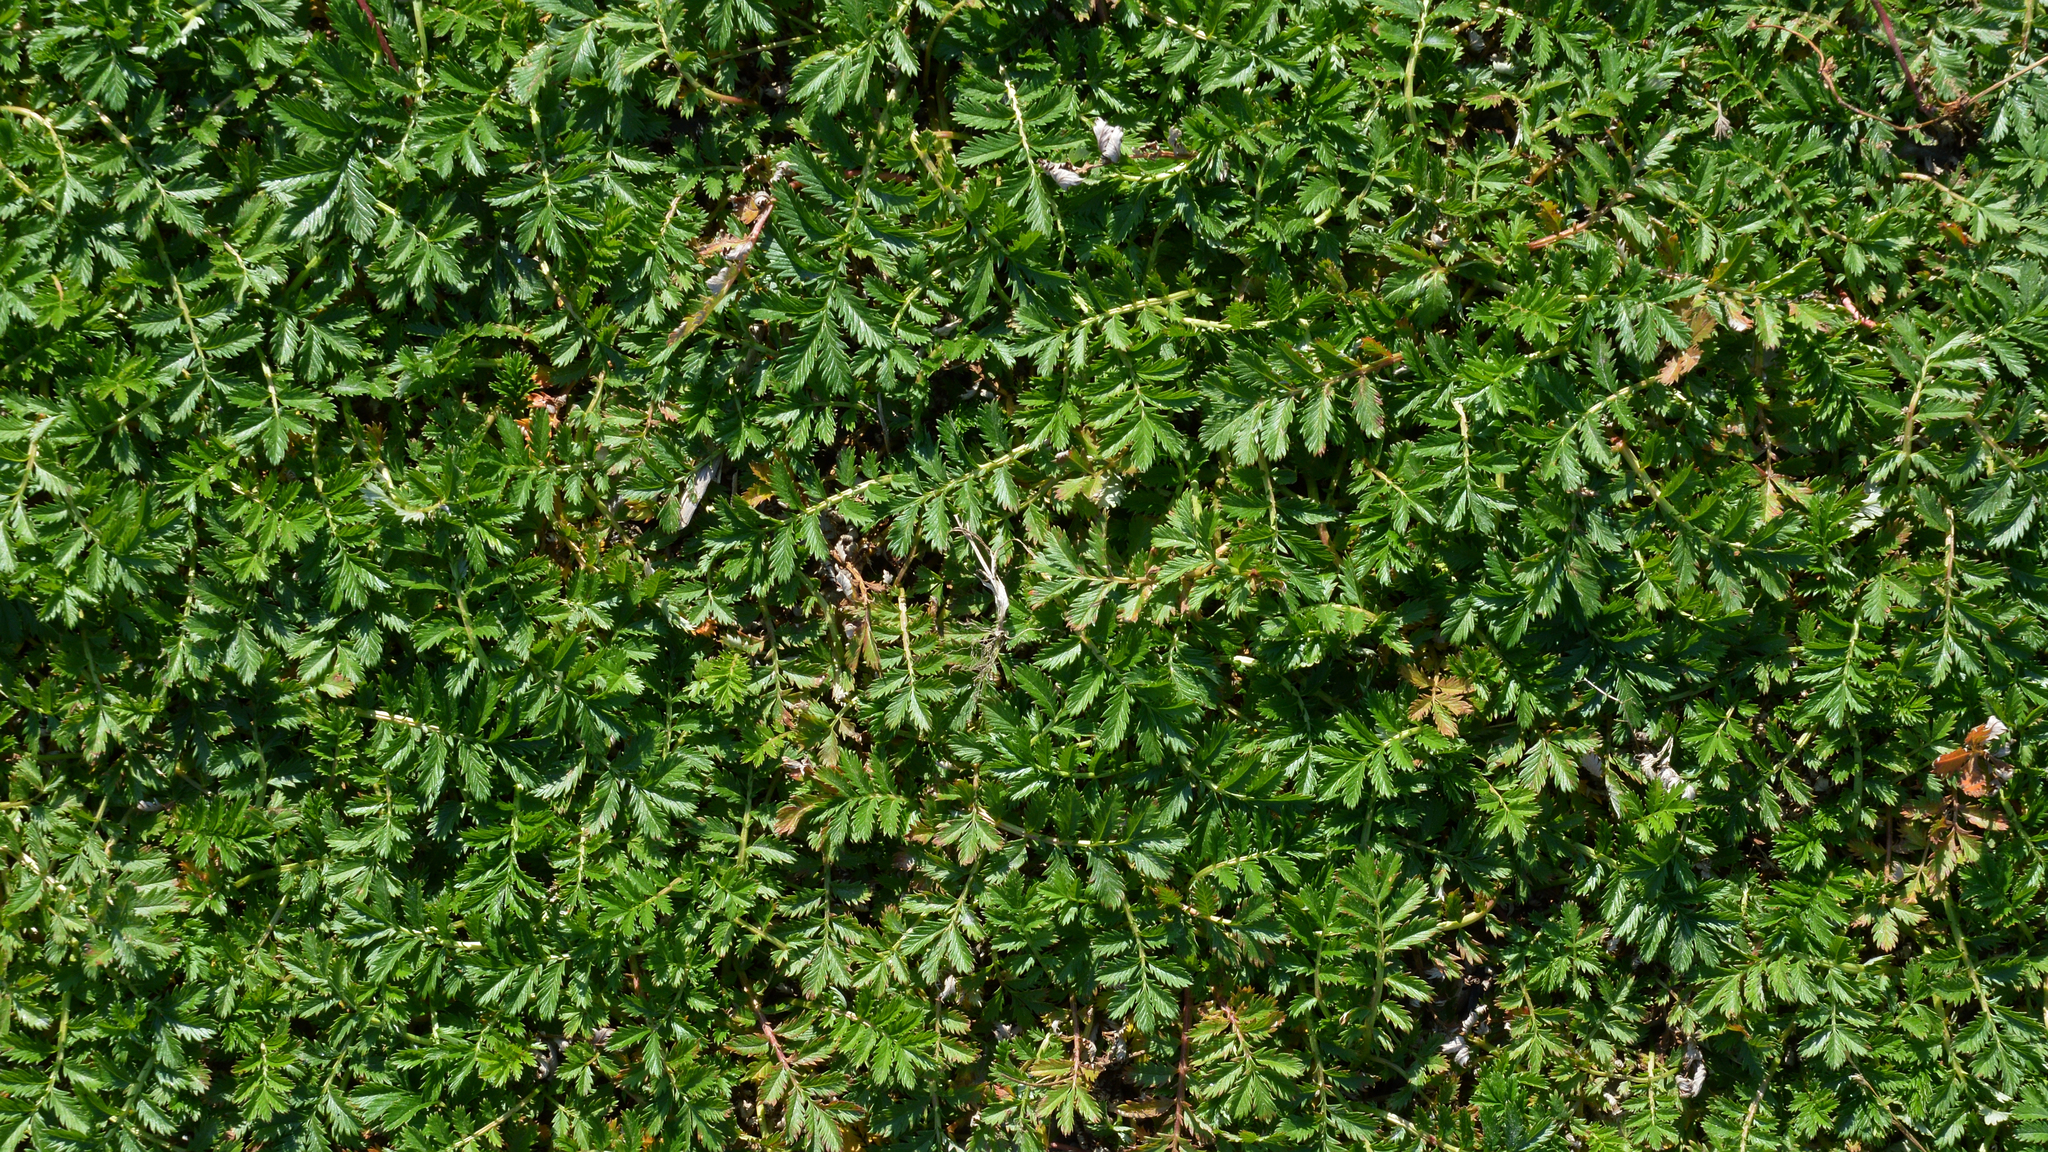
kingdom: Plantae
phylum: Tracheophyta
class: Magnoliopsida
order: Rosales
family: Rosaceae
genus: Argentina
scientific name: Argentina anserina
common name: Common silverweed
